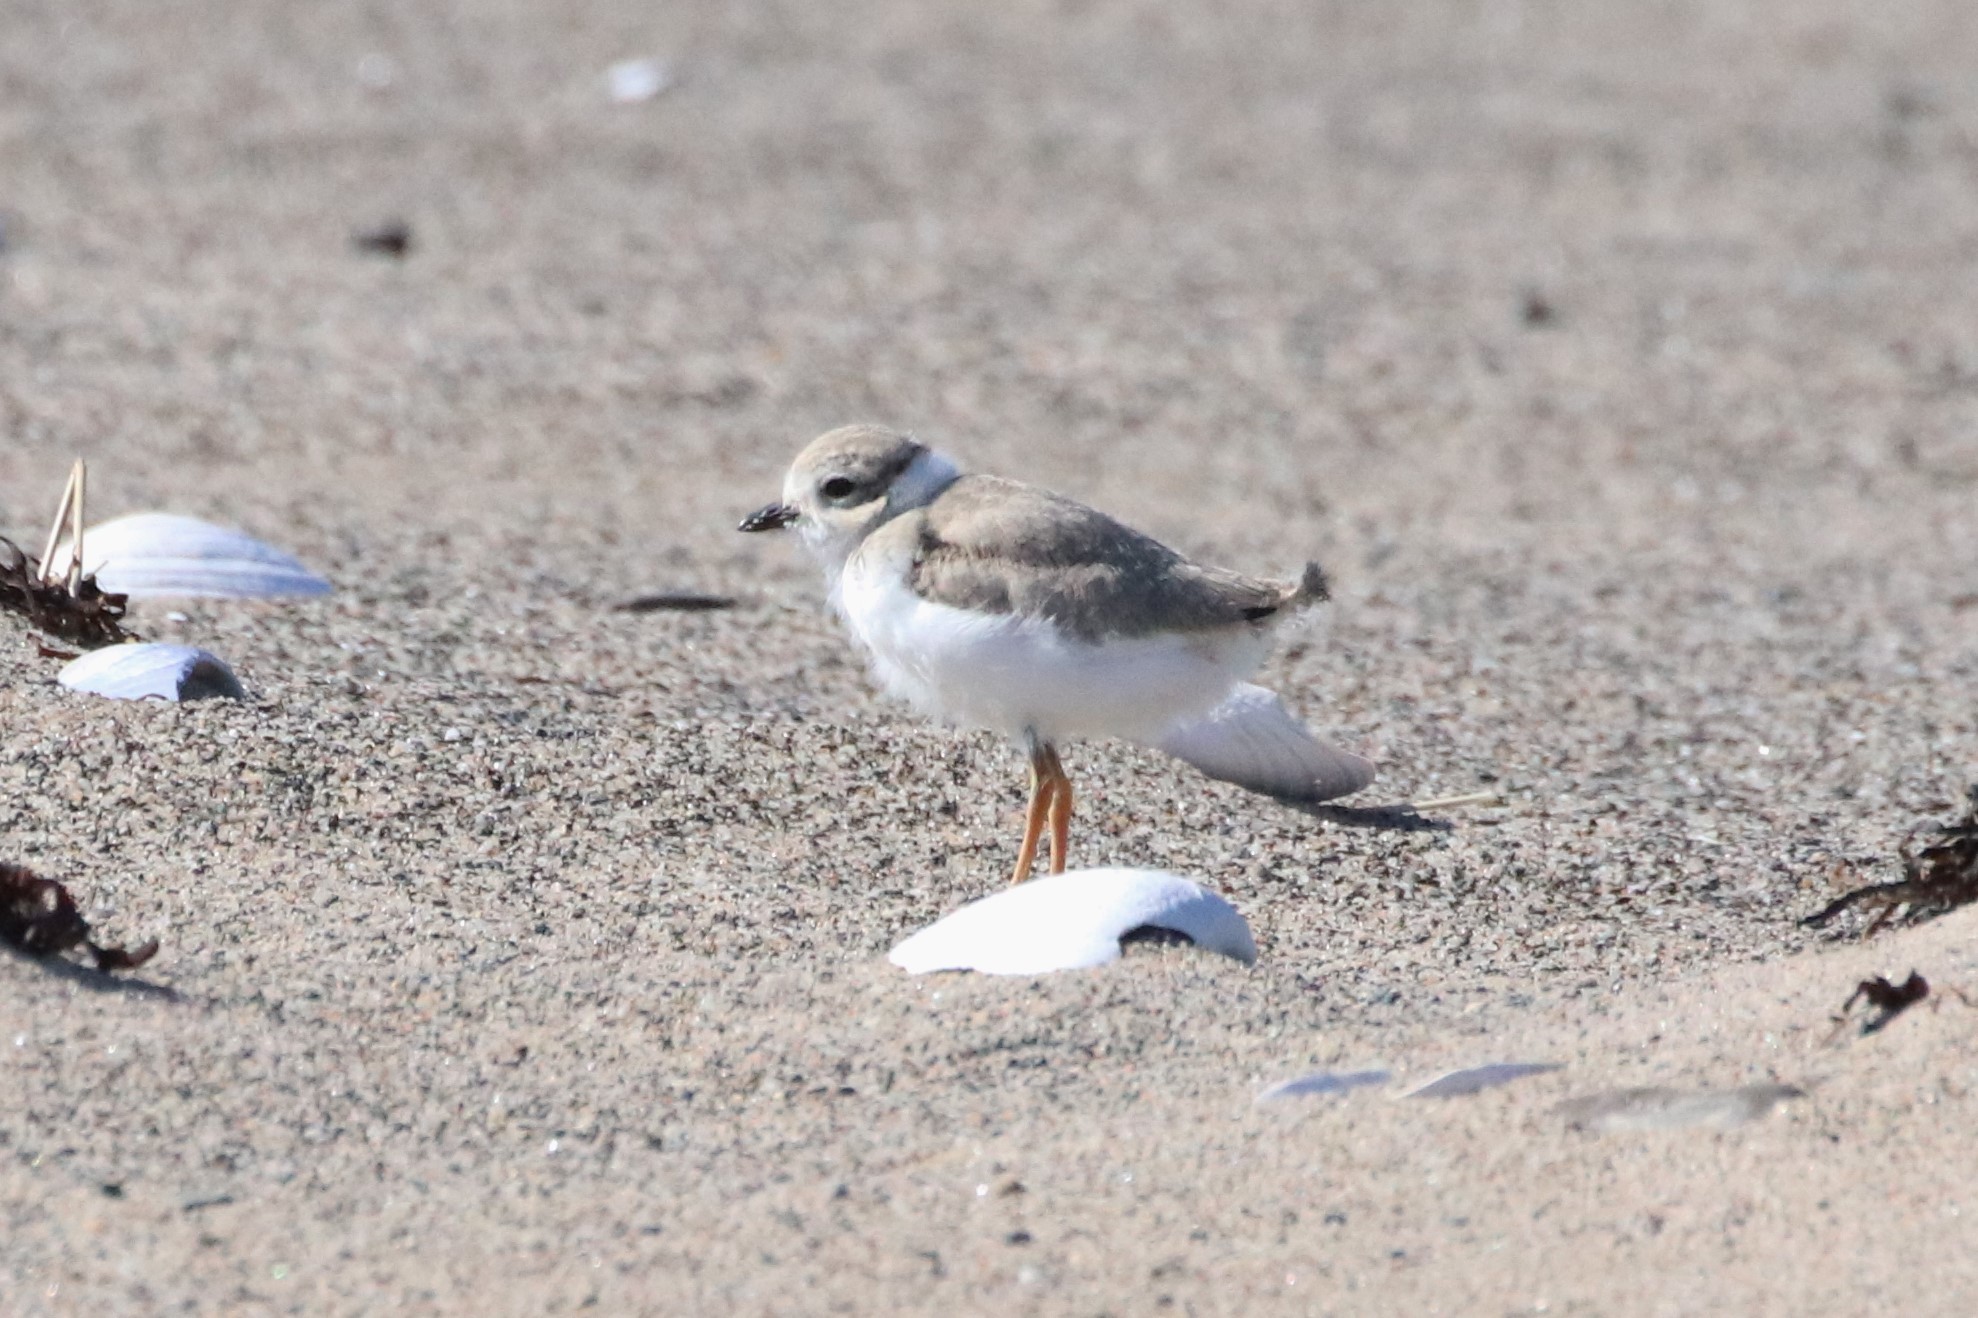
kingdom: Animalia
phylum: Chordata
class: Aves
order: Charadriiformes
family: Charadriidae
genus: Charadrius
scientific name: Charadrius melodus
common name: Piping plover
